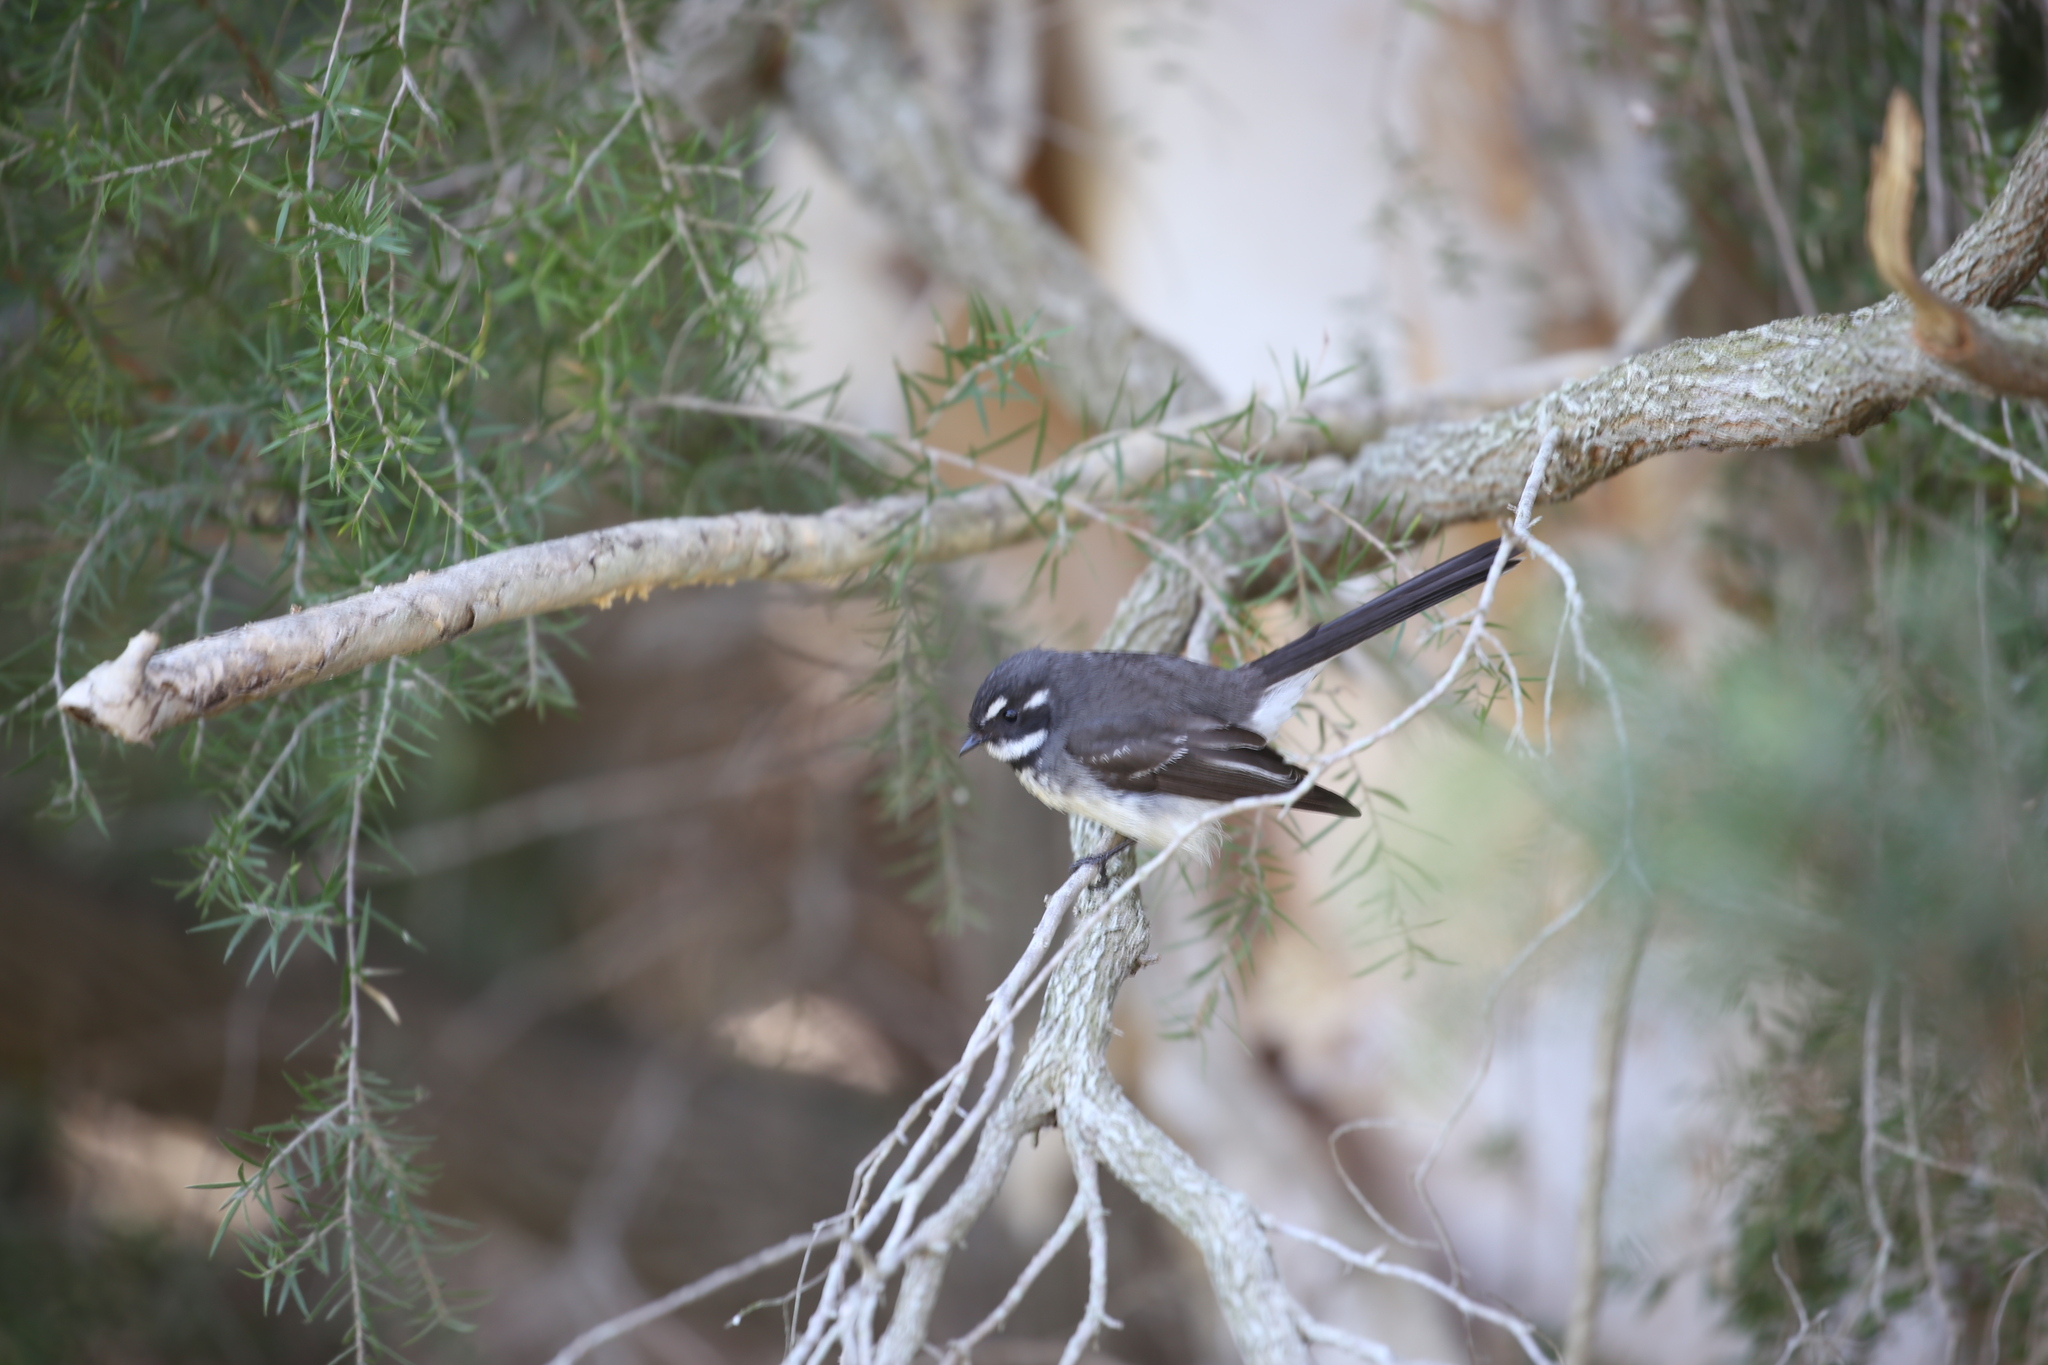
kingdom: Animalia
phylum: Chordata
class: Aves
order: Passeriformes
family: Rhipiduridae
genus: Rhipidura
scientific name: Rhipidura albiscapa
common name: Grey fantail
